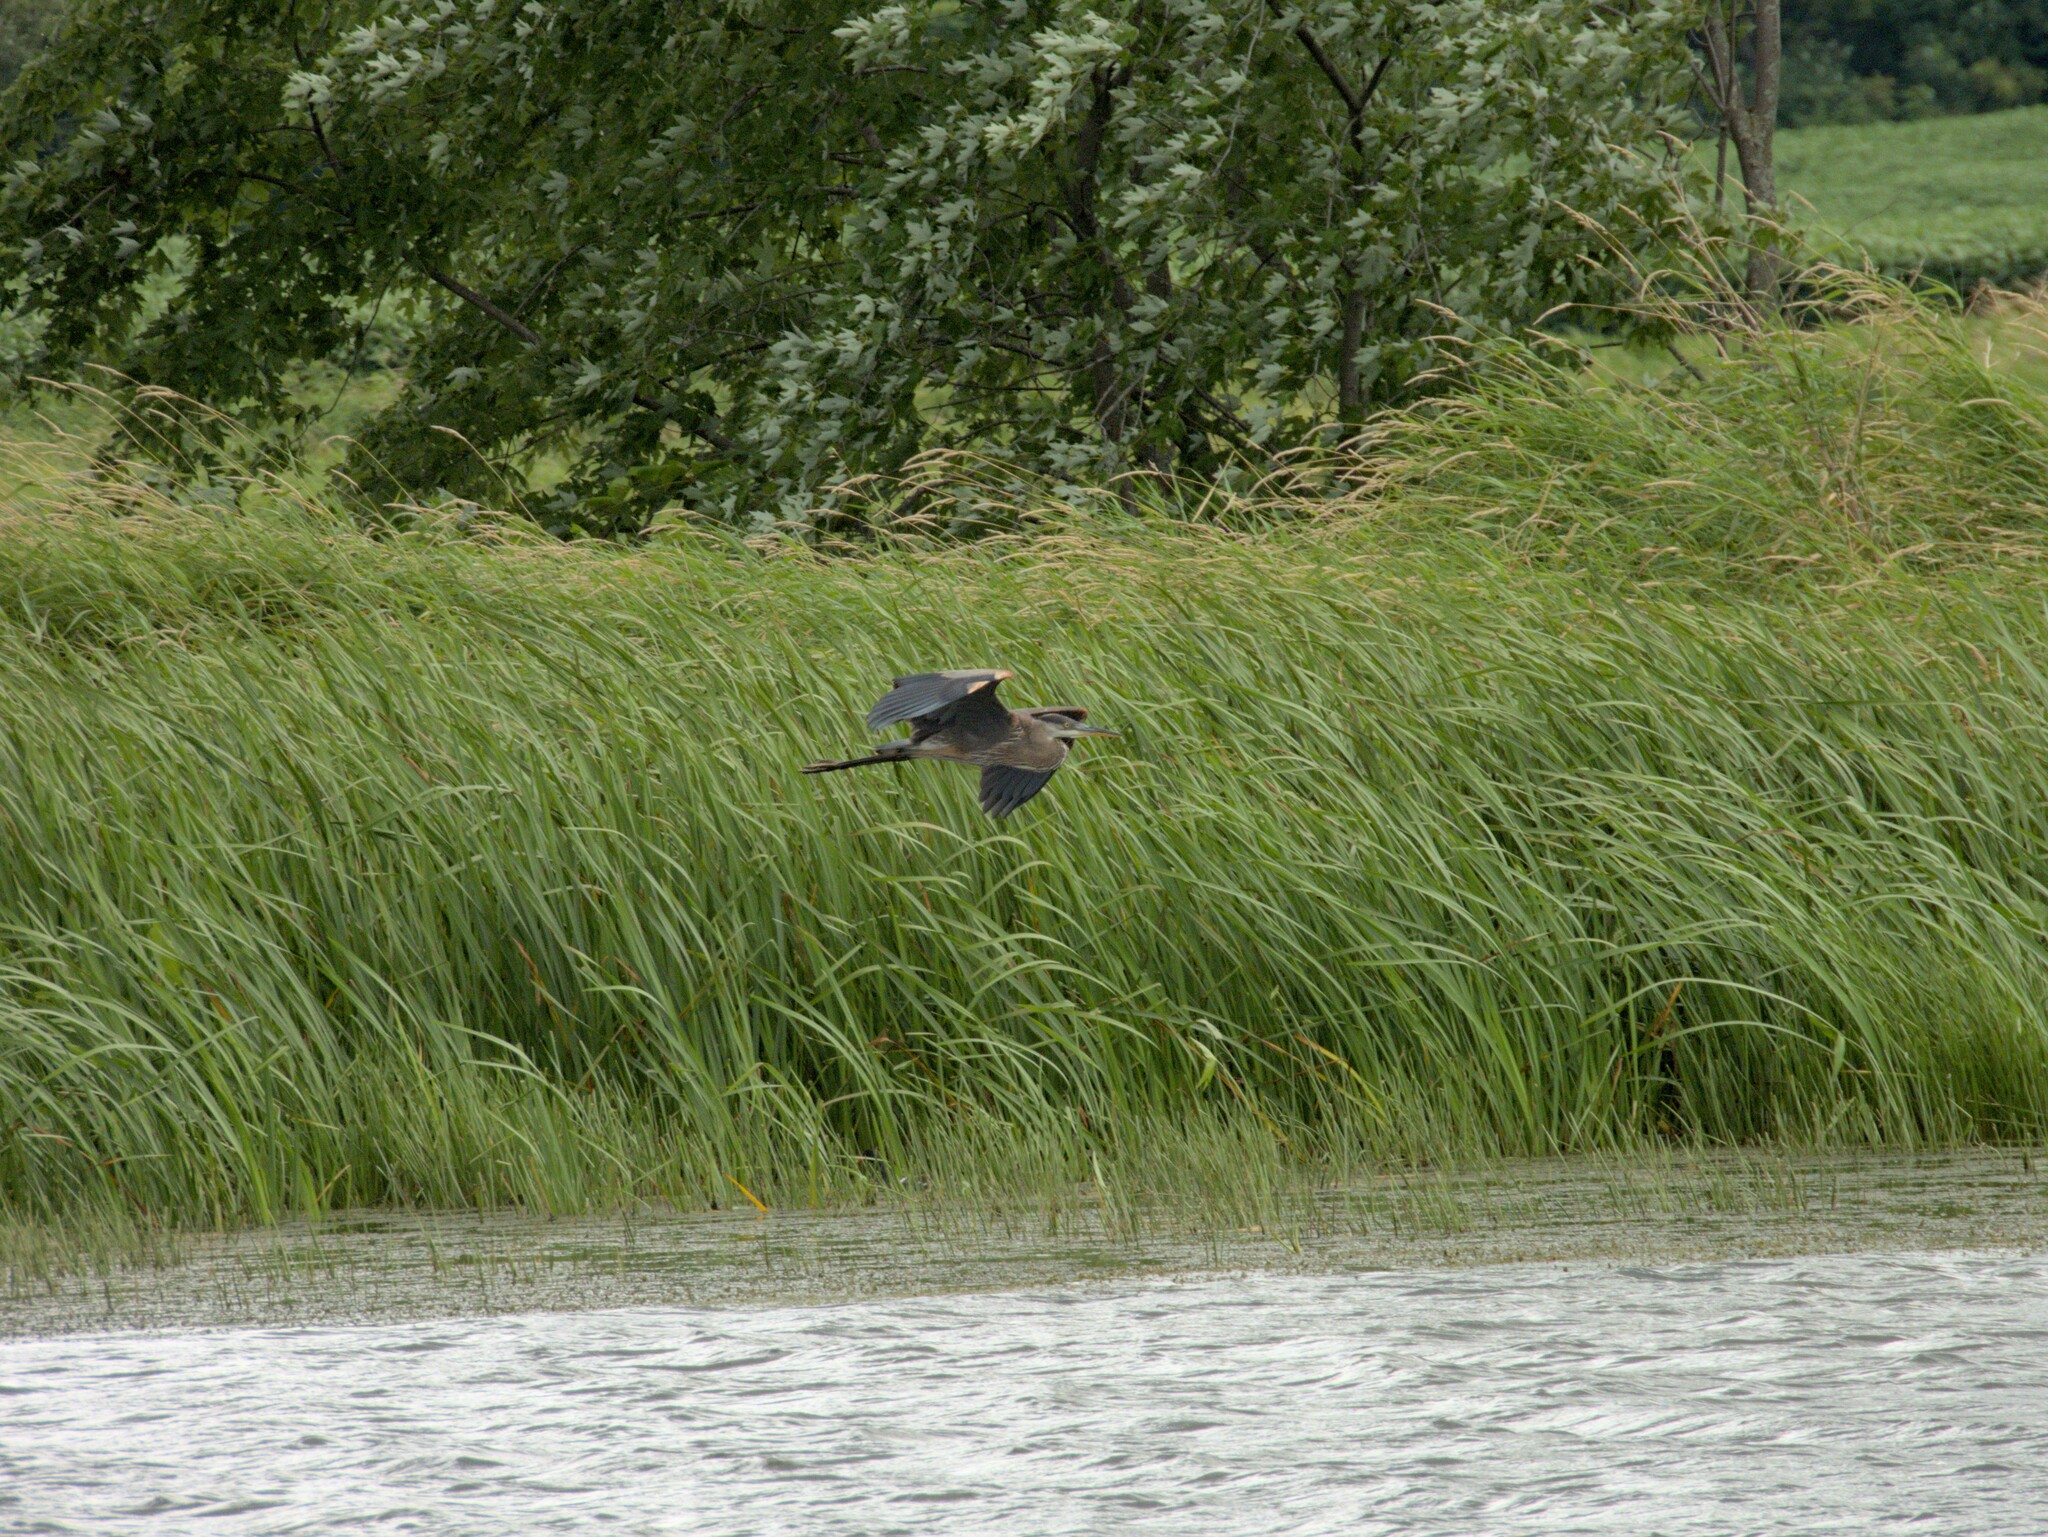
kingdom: Animalia
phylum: Chordata
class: Aves
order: Pelecaniformes
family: Ardeidae
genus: Ardea
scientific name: Ardea herodias
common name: Great blue heron
